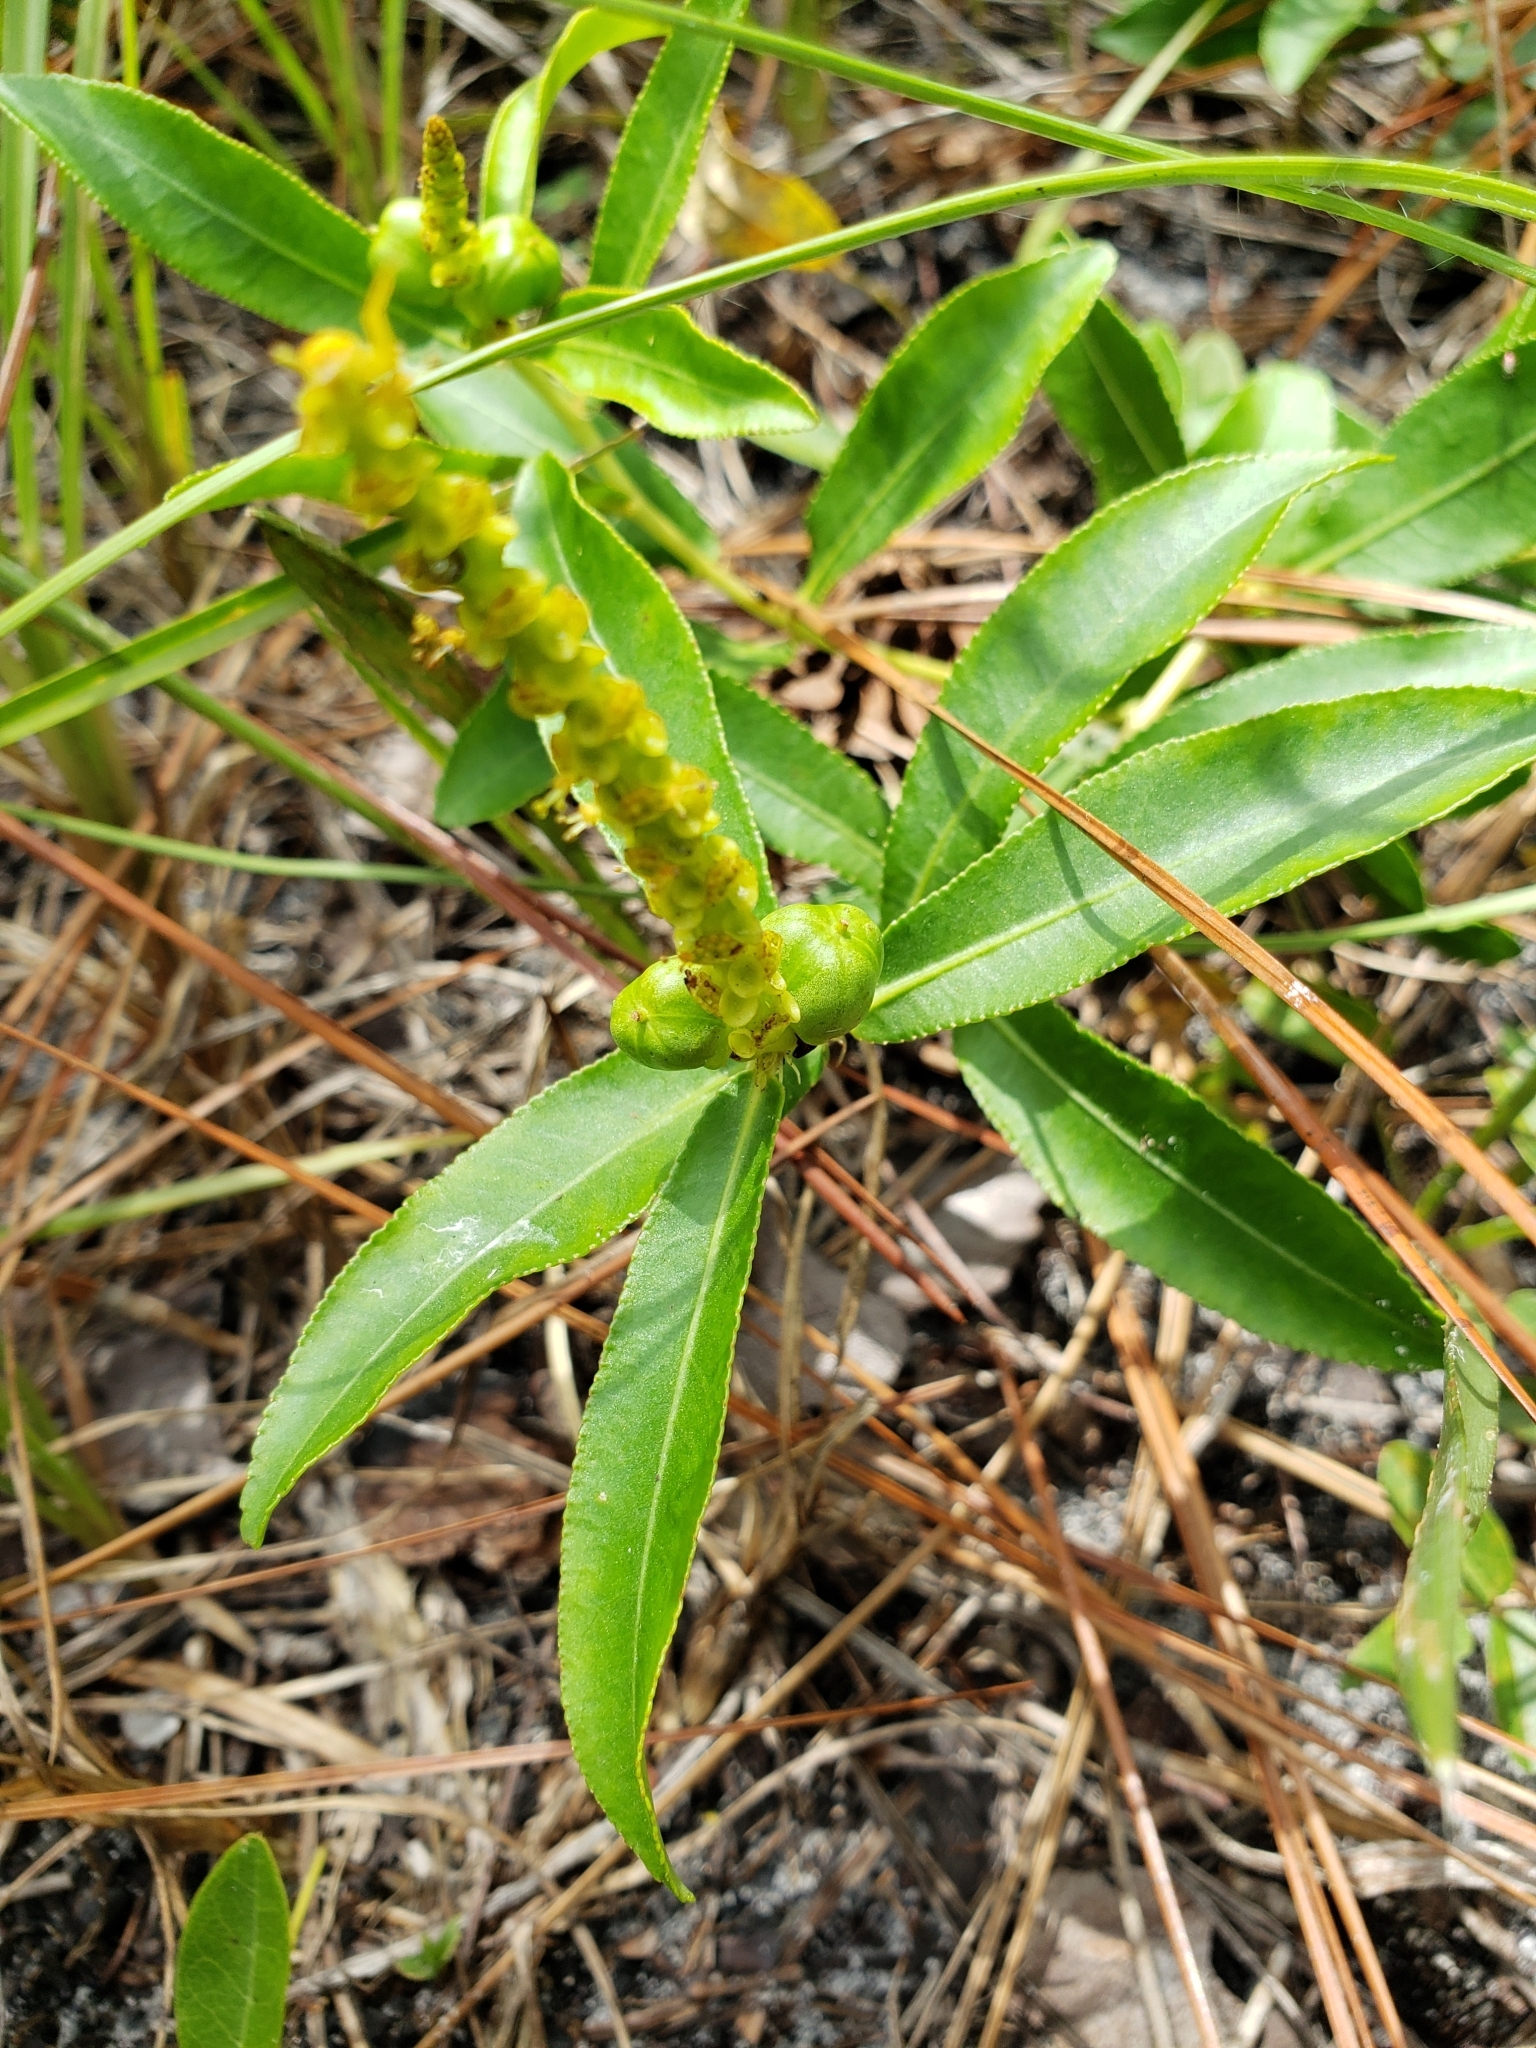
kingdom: Plantae
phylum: Tracheophyta
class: Magnoliopsida
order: Malpighiales
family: Euphorbiaceae
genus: Stillingia
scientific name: Stillingia sylvatica
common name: Queen's-delight
